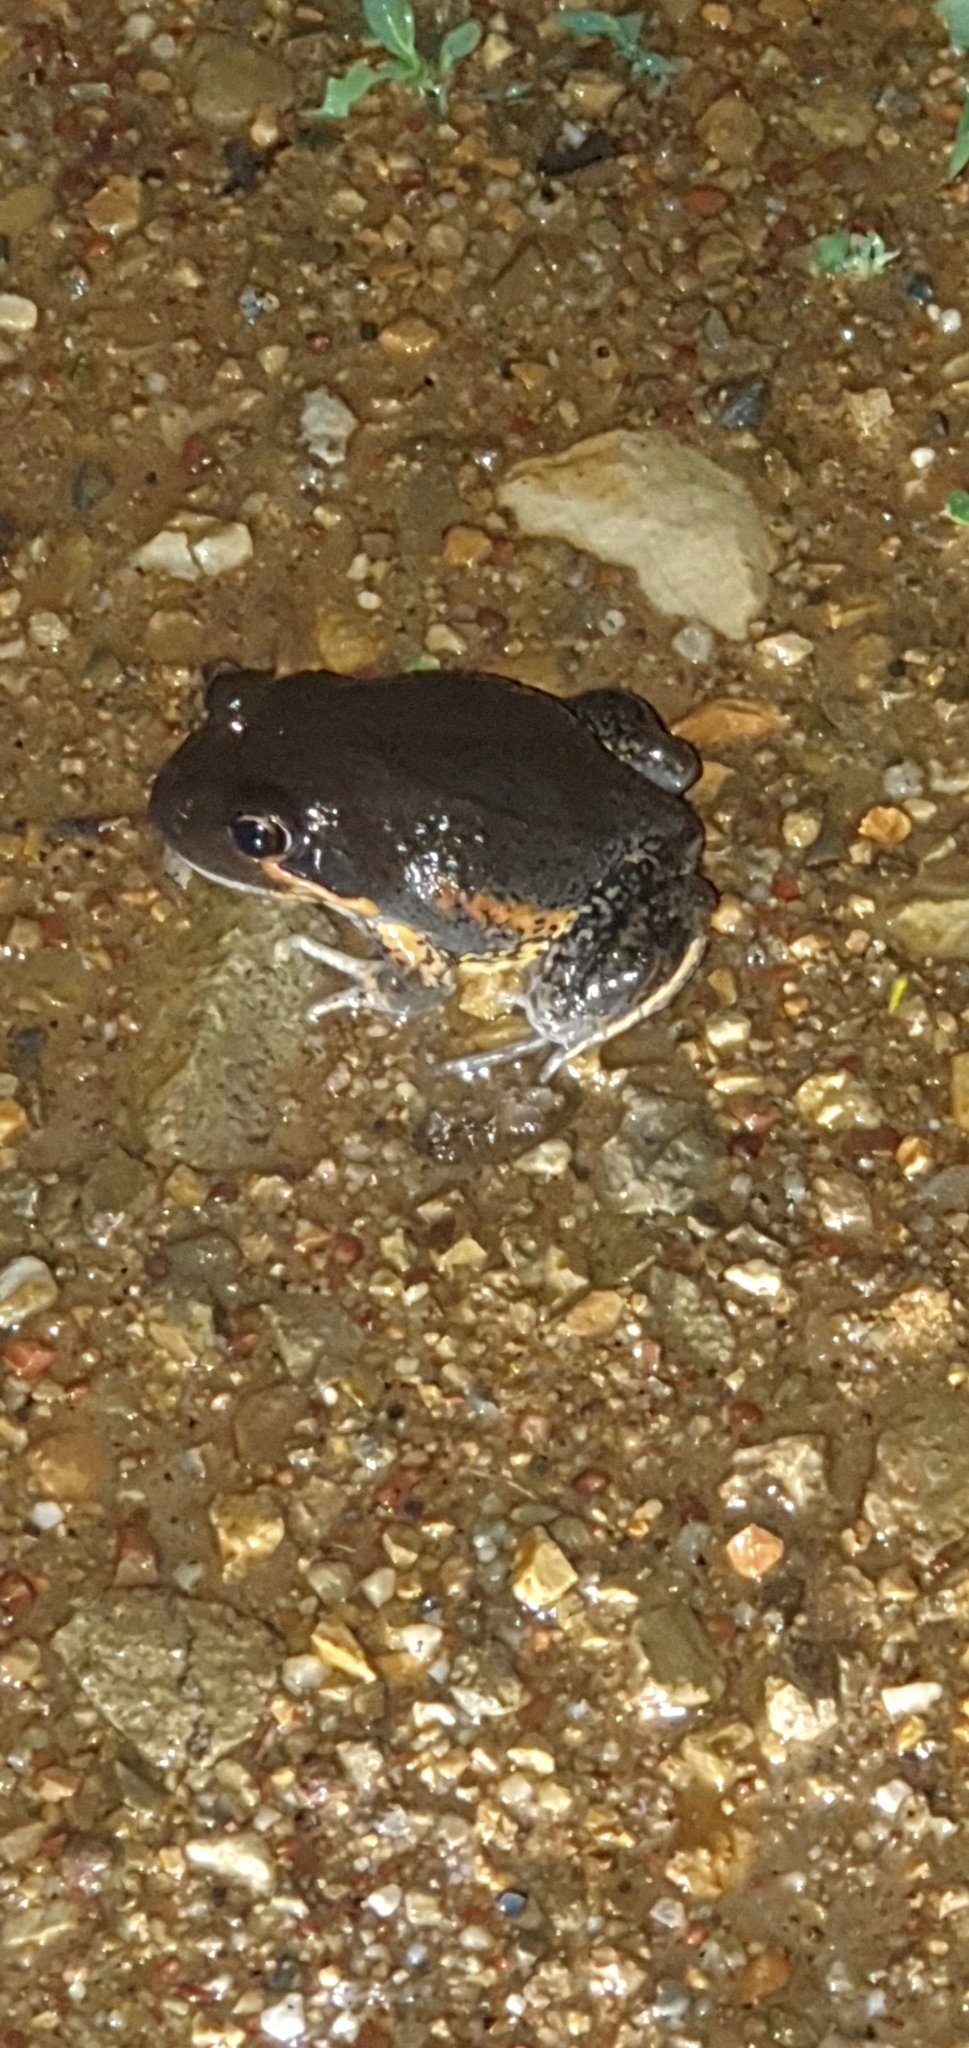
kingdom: Animalia
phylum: Chordata
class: Amphibia
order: Anura
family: Limnodynastidae
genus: Limnodynastes
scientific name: Limnodynastes terraereginae
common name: Northern banjo frog
